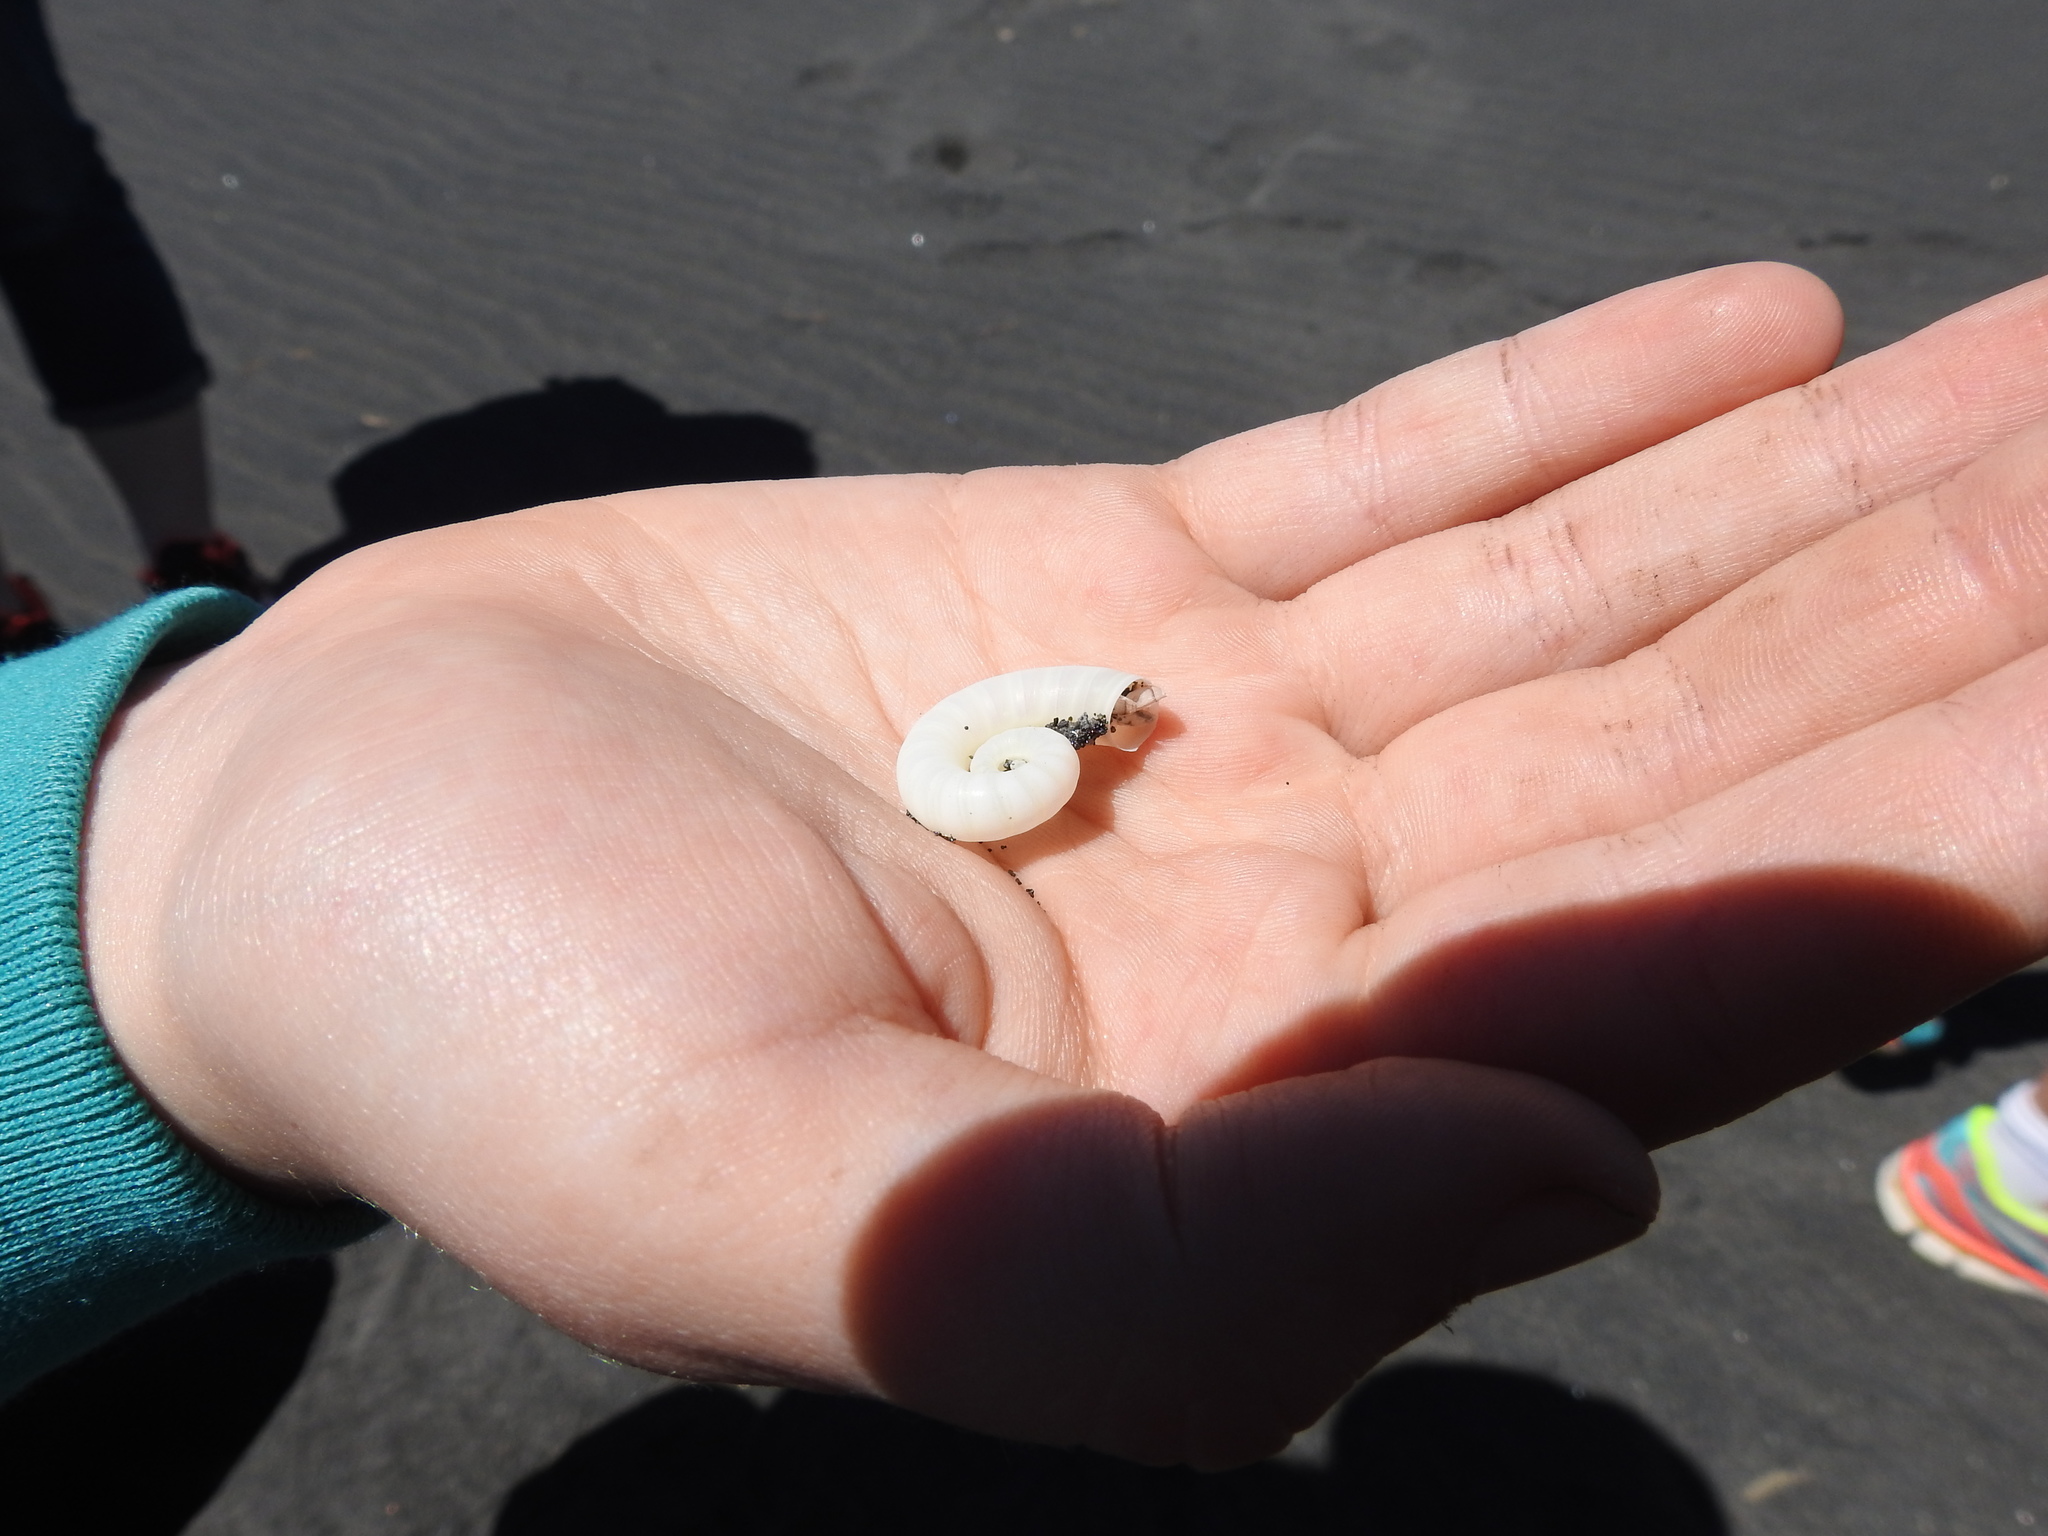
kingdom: Animalia
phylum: Mollusca
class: Cephalopoda
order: Spirulida
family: Spirulidae
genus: Spirula
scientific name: Spirula spirula
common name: Ram's horn squid
